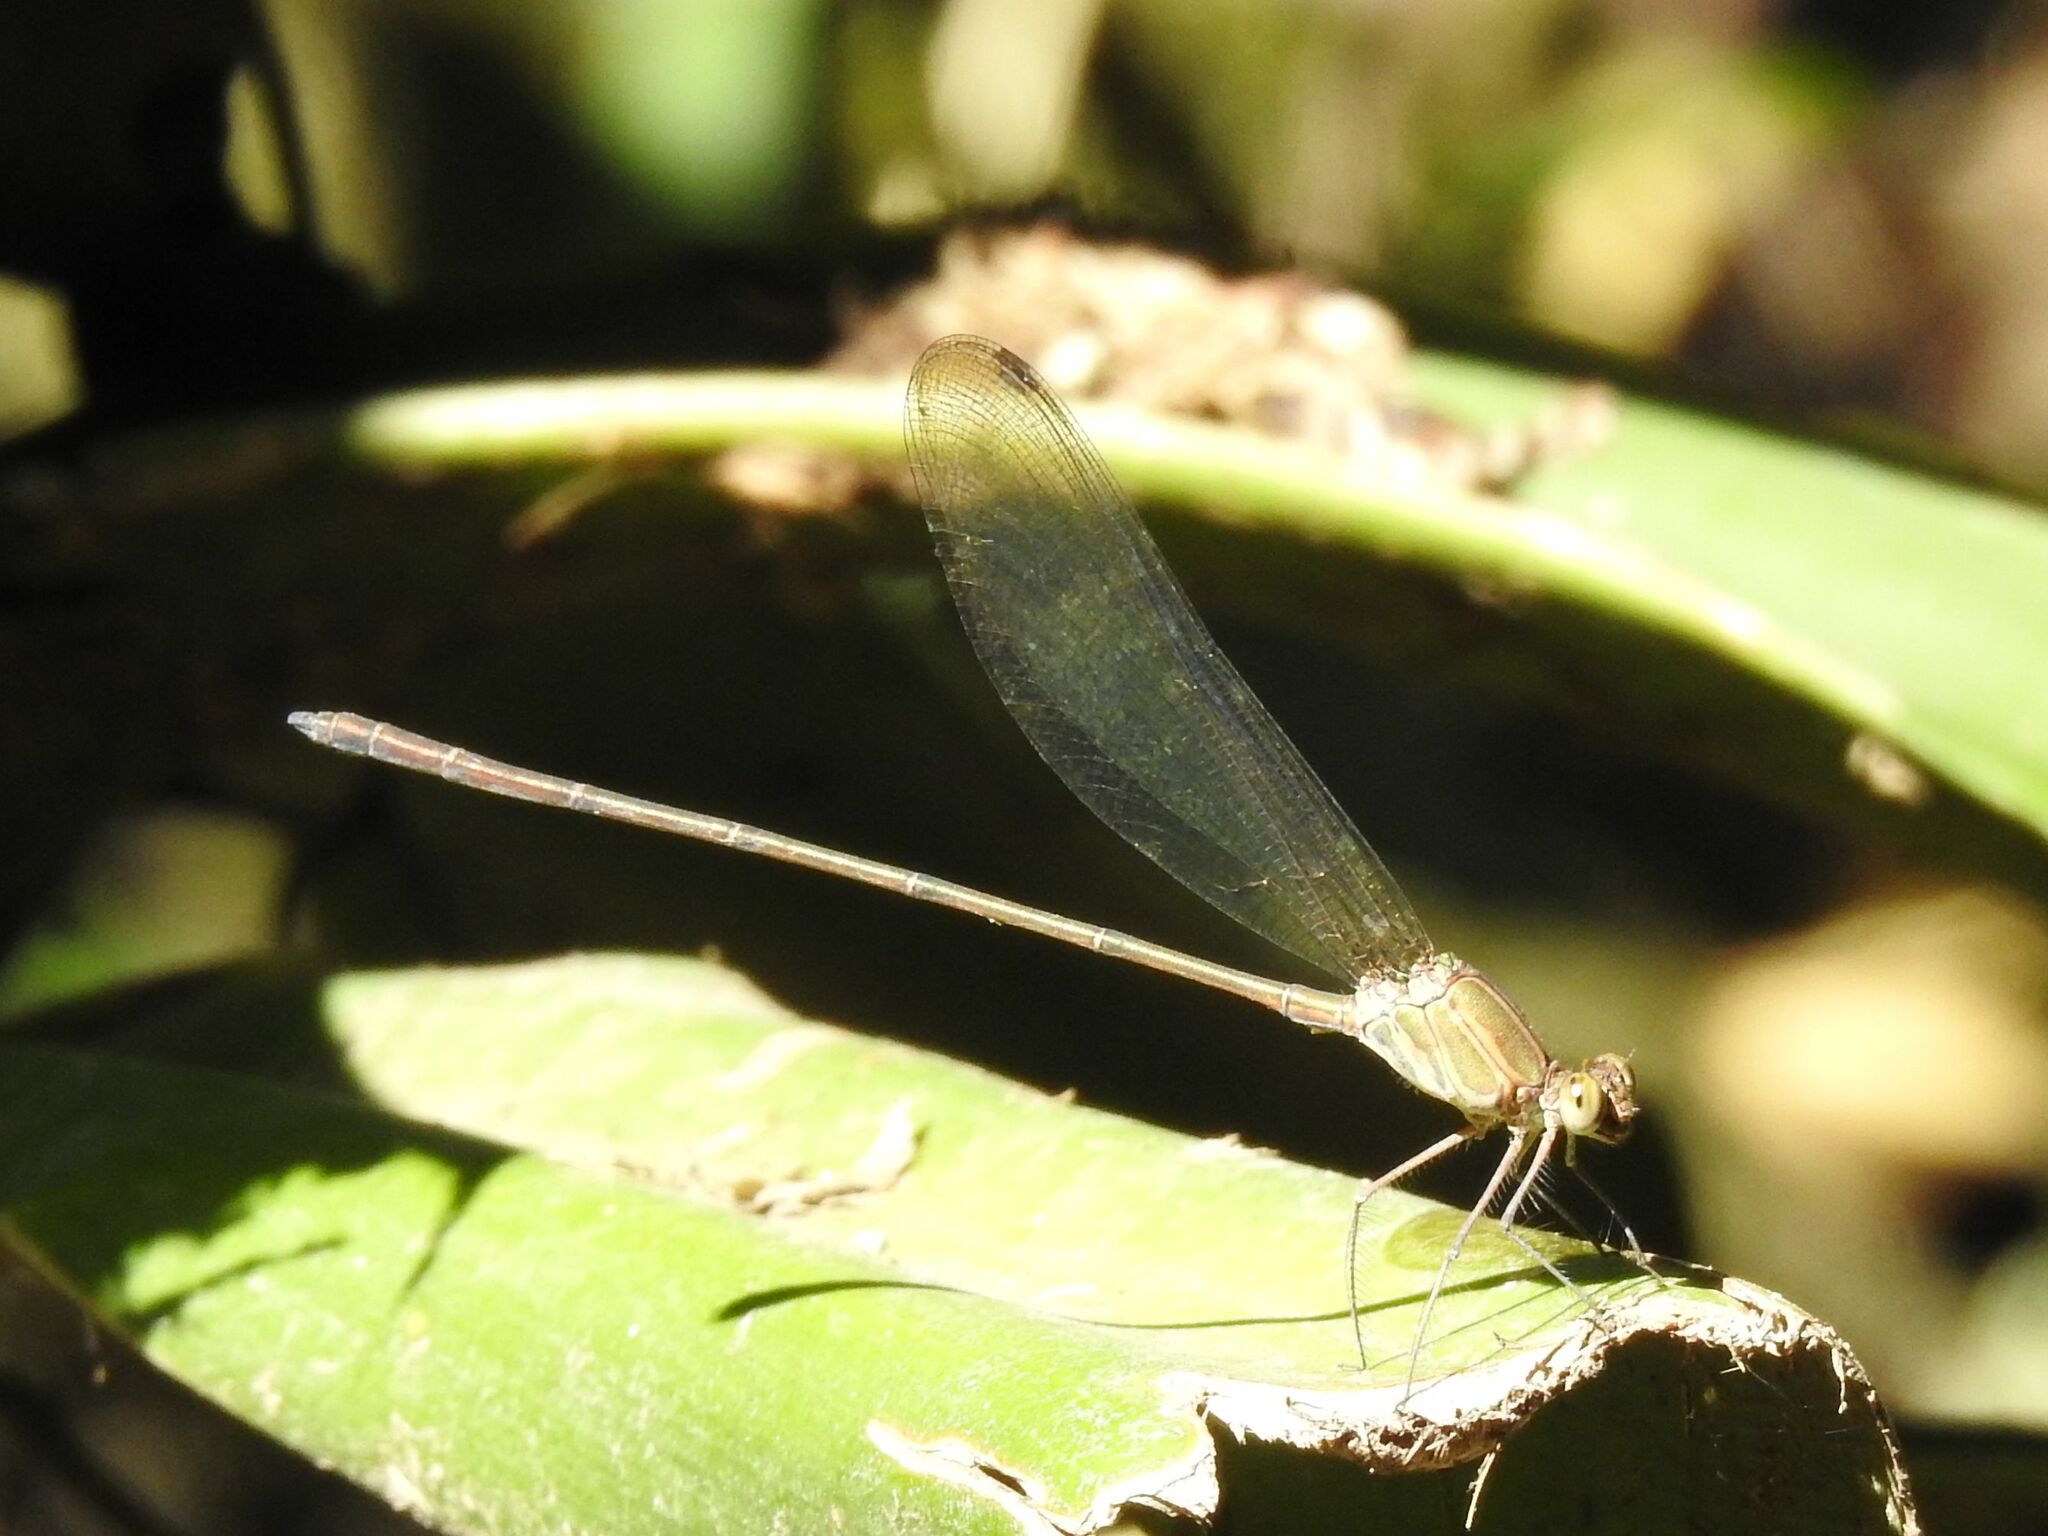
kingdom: Animalia
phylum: Arthropoda
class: Insecta
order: Odonata
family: Calopterygidae
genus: Phaon
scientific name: Phaon iridipennis
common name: Glistening demoiselle
